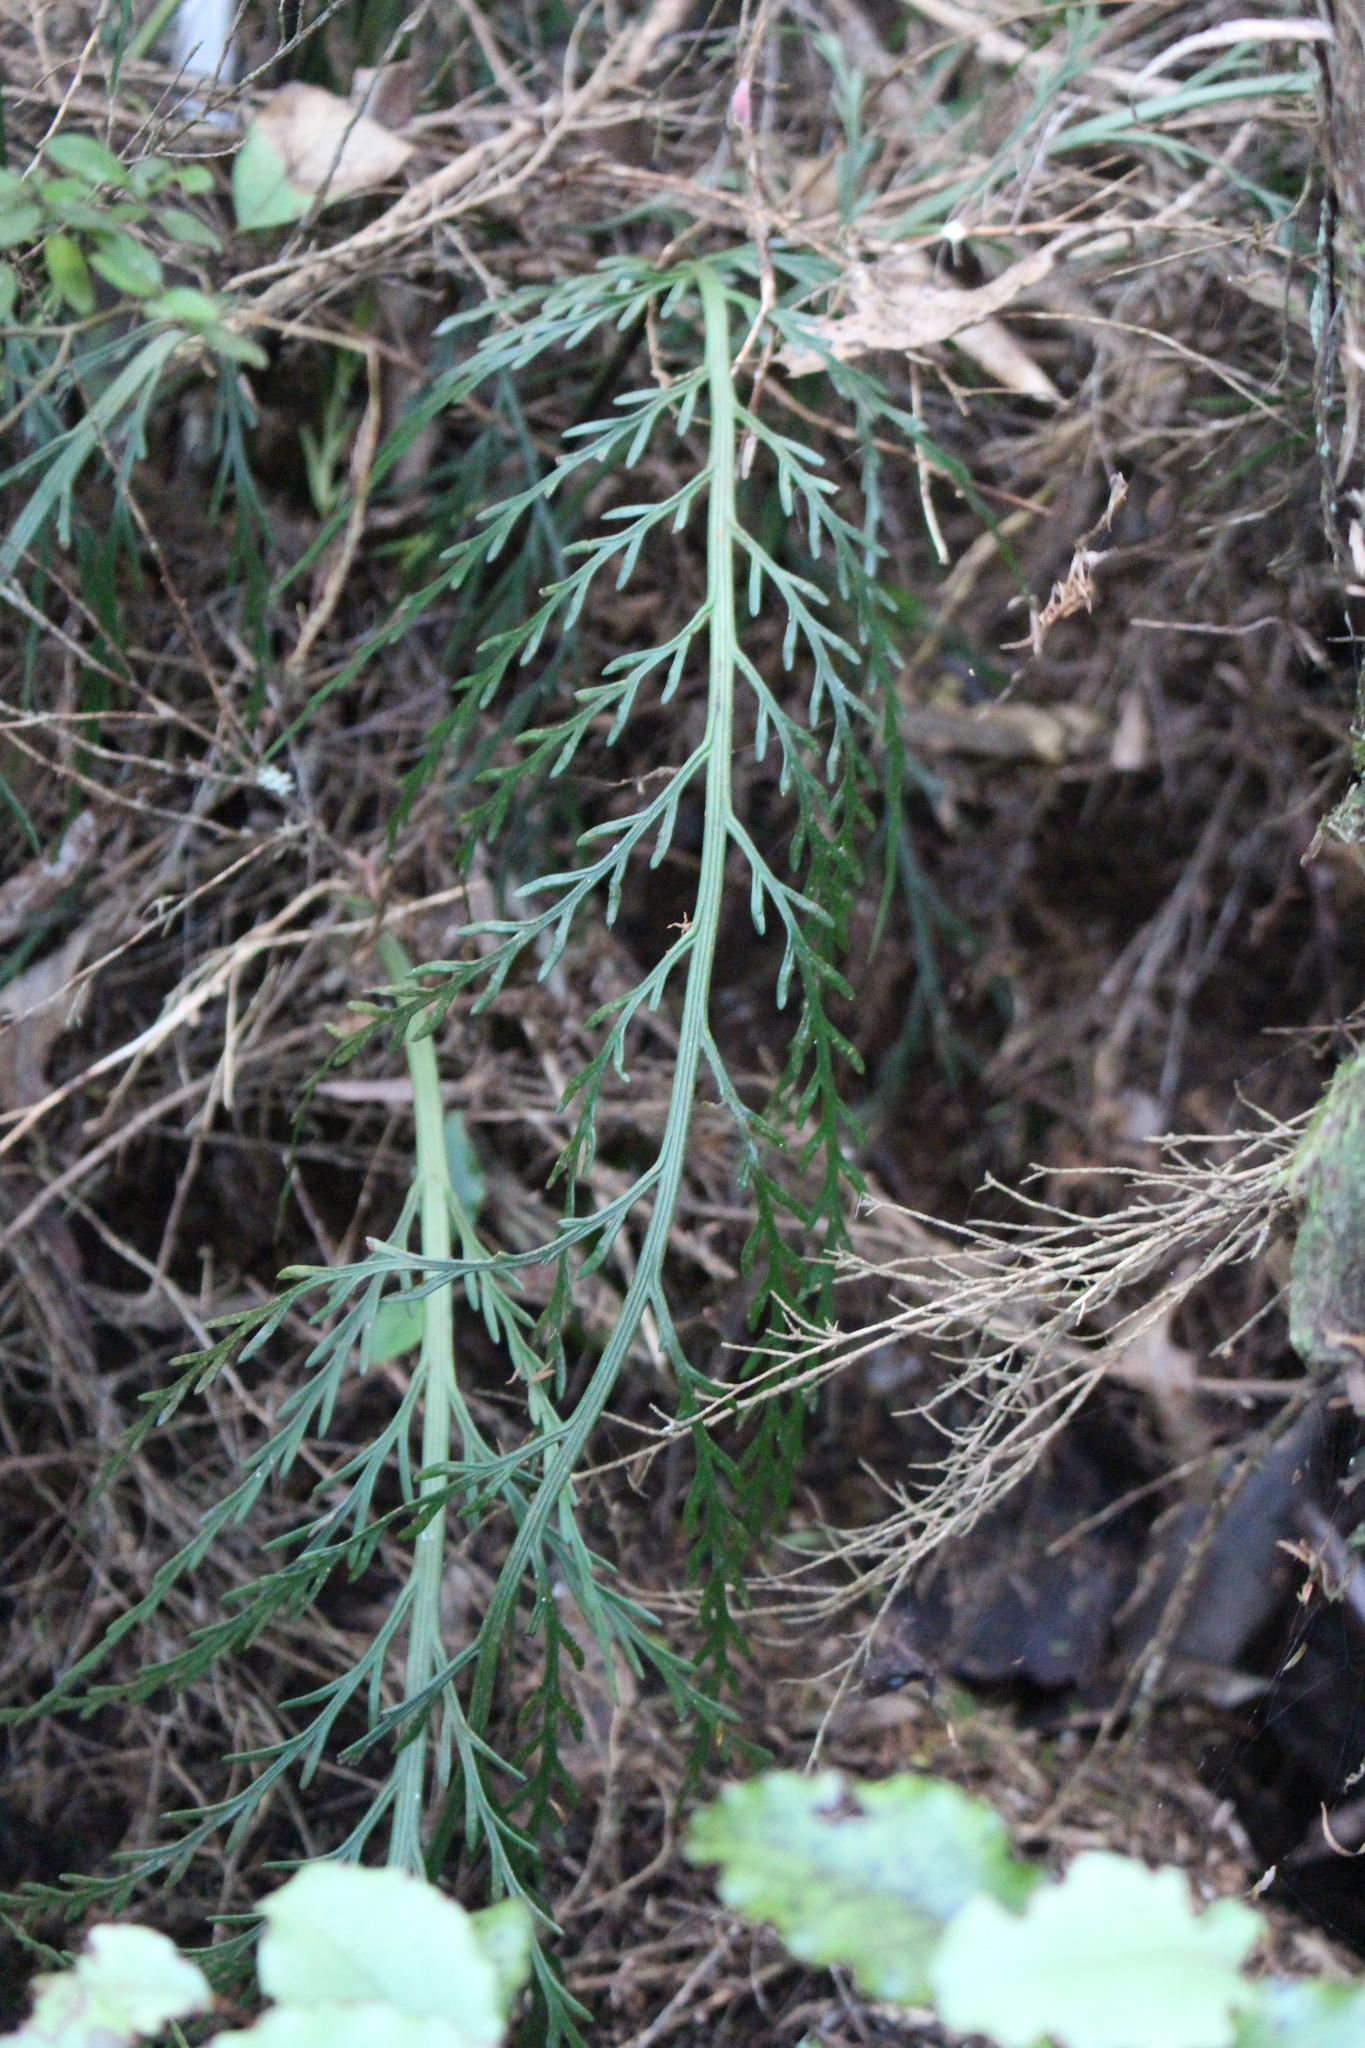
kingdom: Plantae
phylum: Tracheophyta
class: Polypodiopsida
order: Polypodiales
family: Aspleniaceae
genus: Asplenium
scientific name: Asplenium flaccidum
